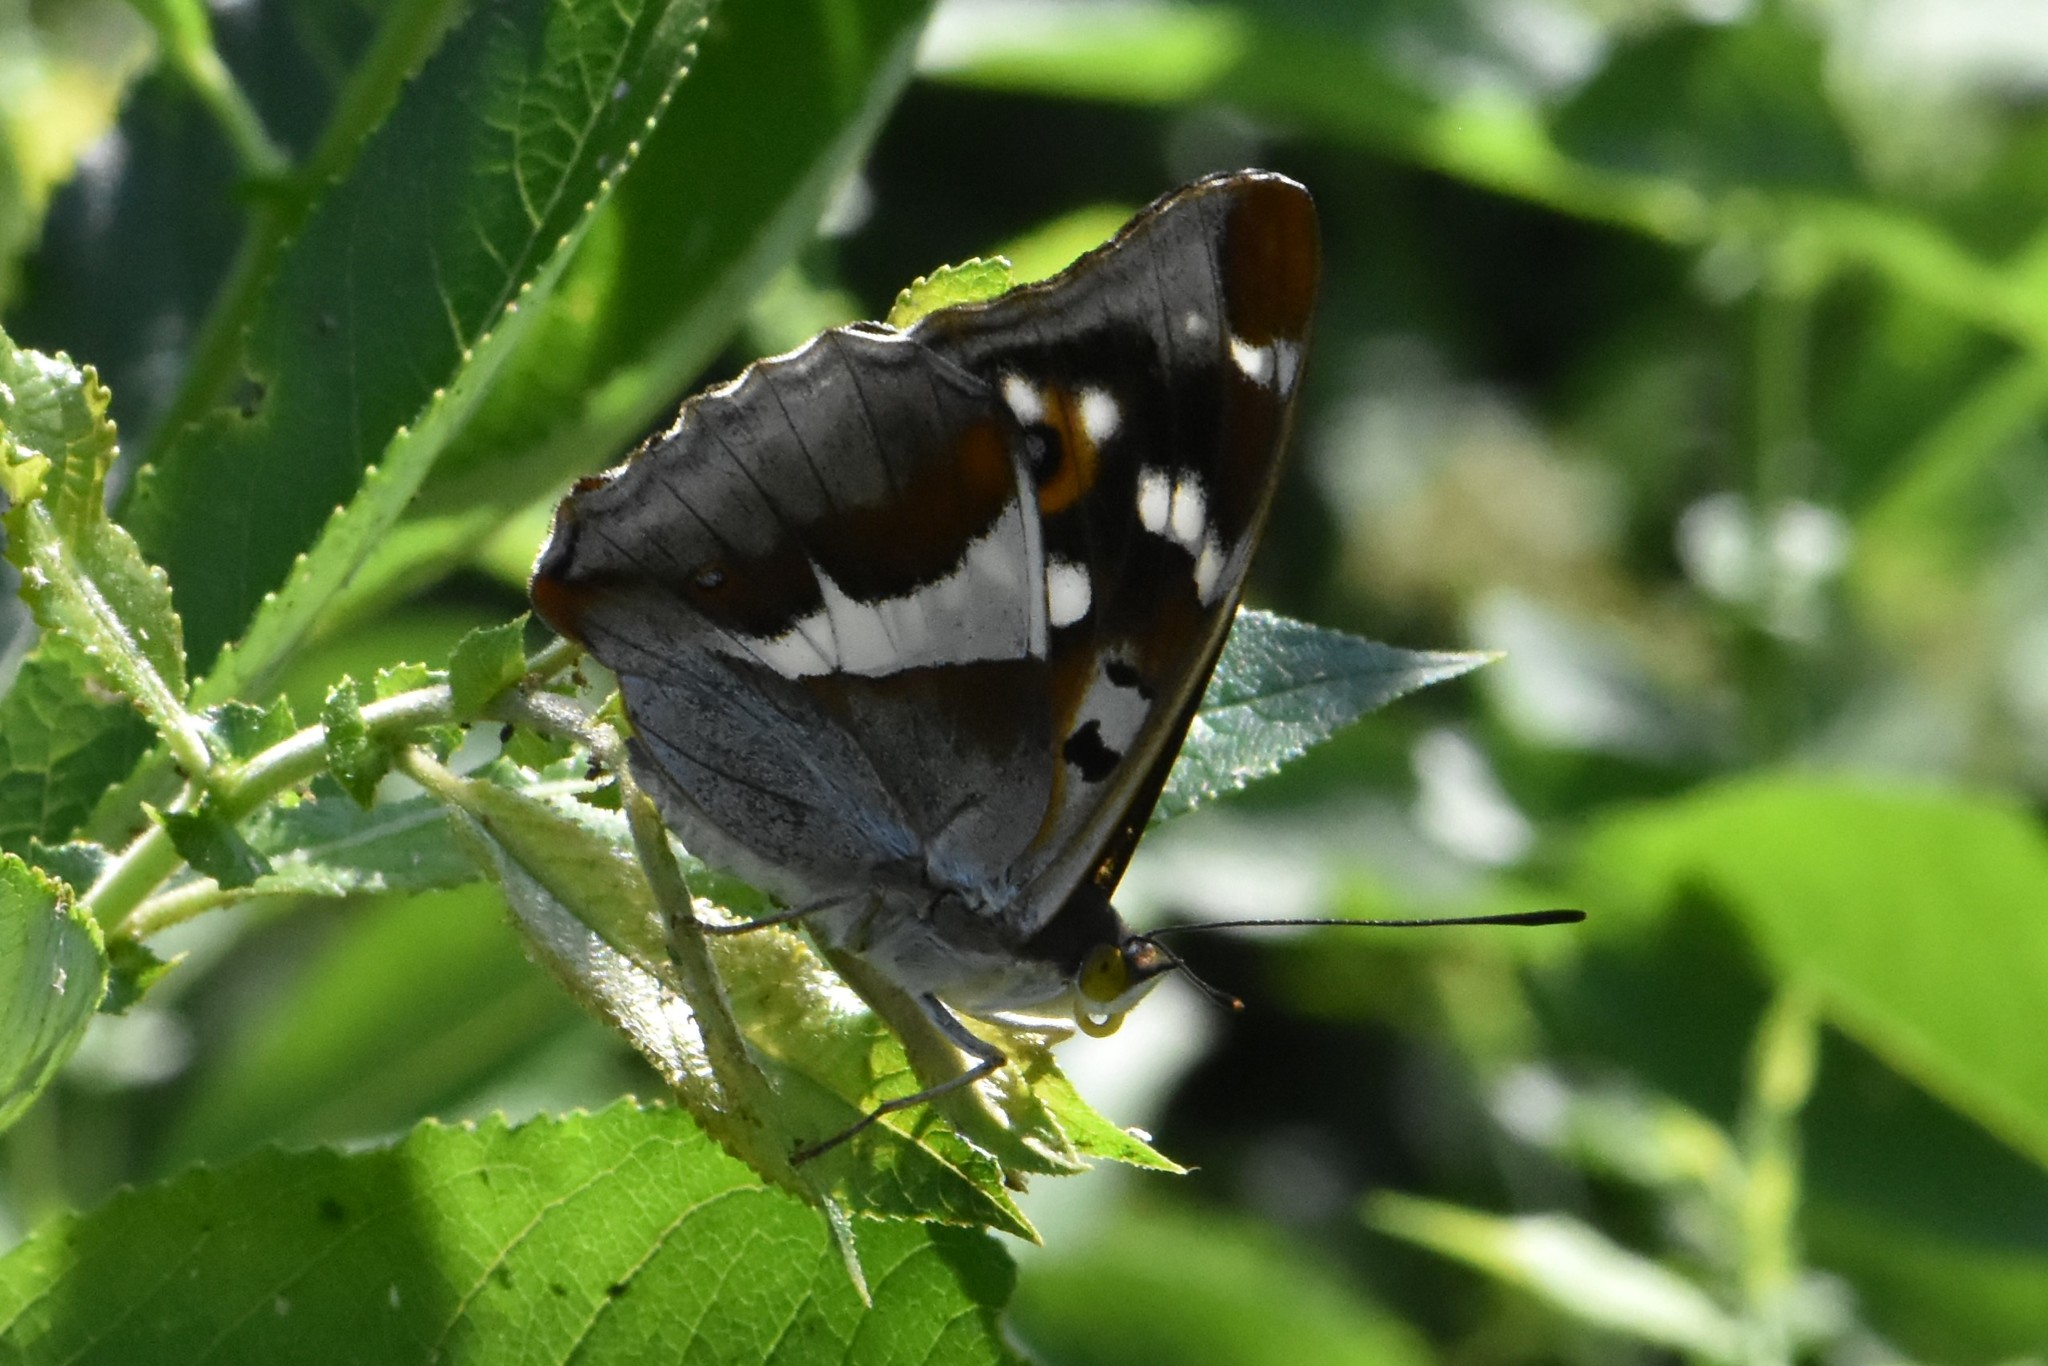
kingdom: Animalia
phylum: Arthropoda
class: Insecta
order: Lepidoptera
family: Nymphalidae
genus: Apatura
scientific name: Apatura iris
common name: Purple emperor
